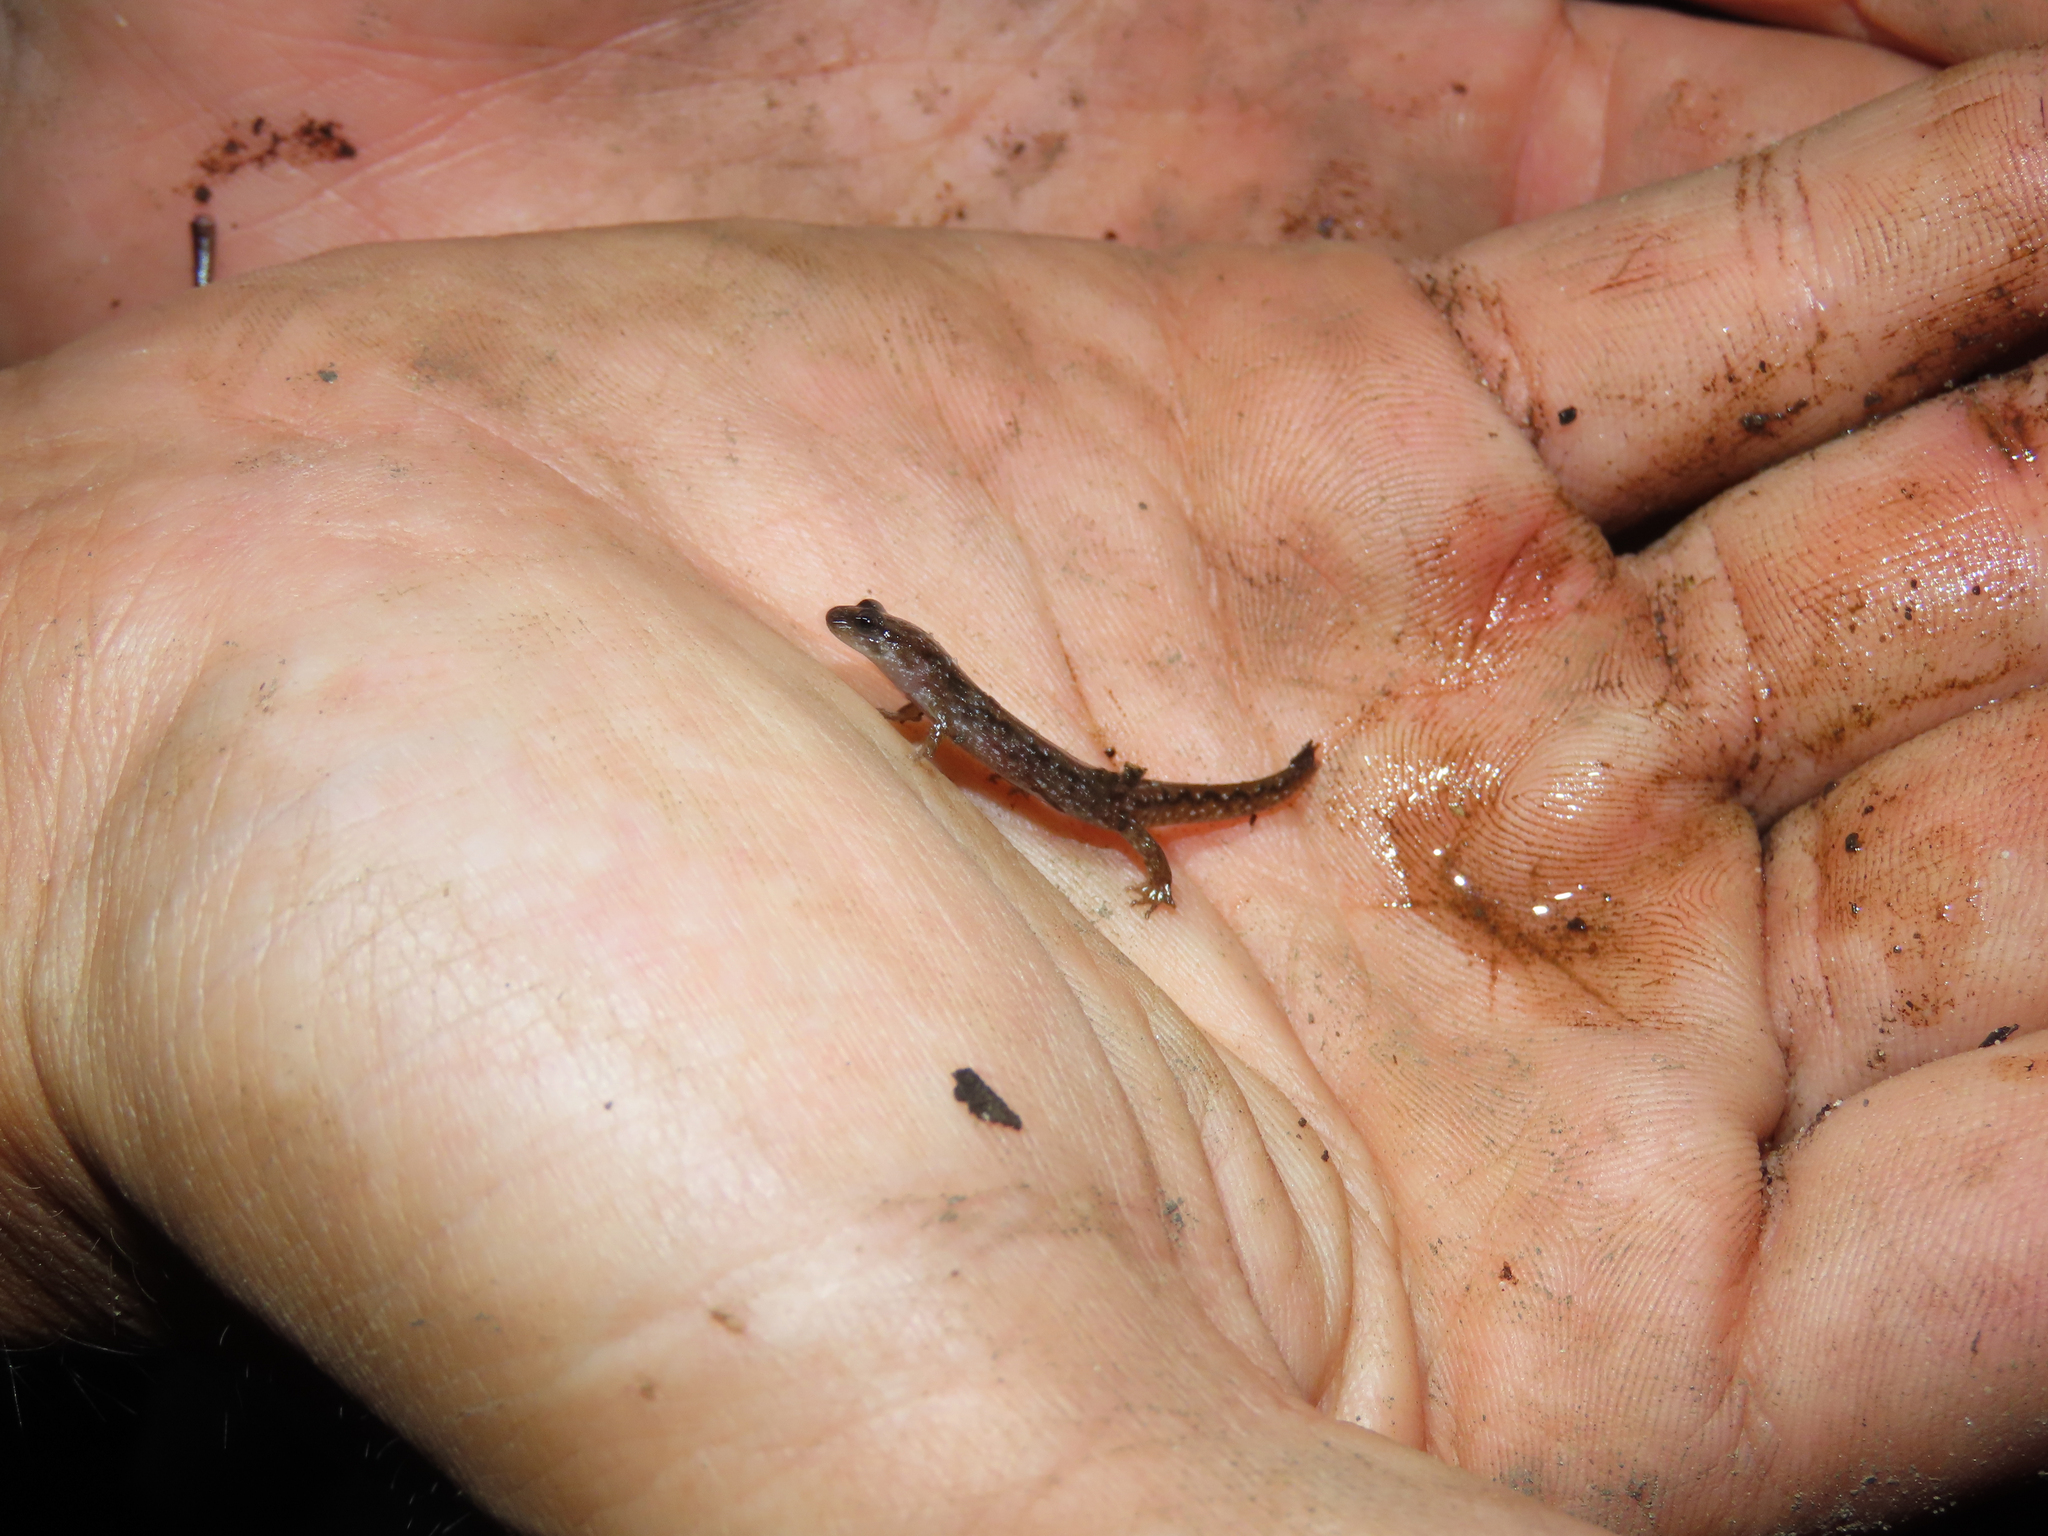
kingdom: Animalia
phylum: Chordata
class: Amphibia
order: Caudata
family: Plethodontidae
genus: Desmognathus
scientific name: Desmognathus fuscus
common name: Northern dusky salamander
